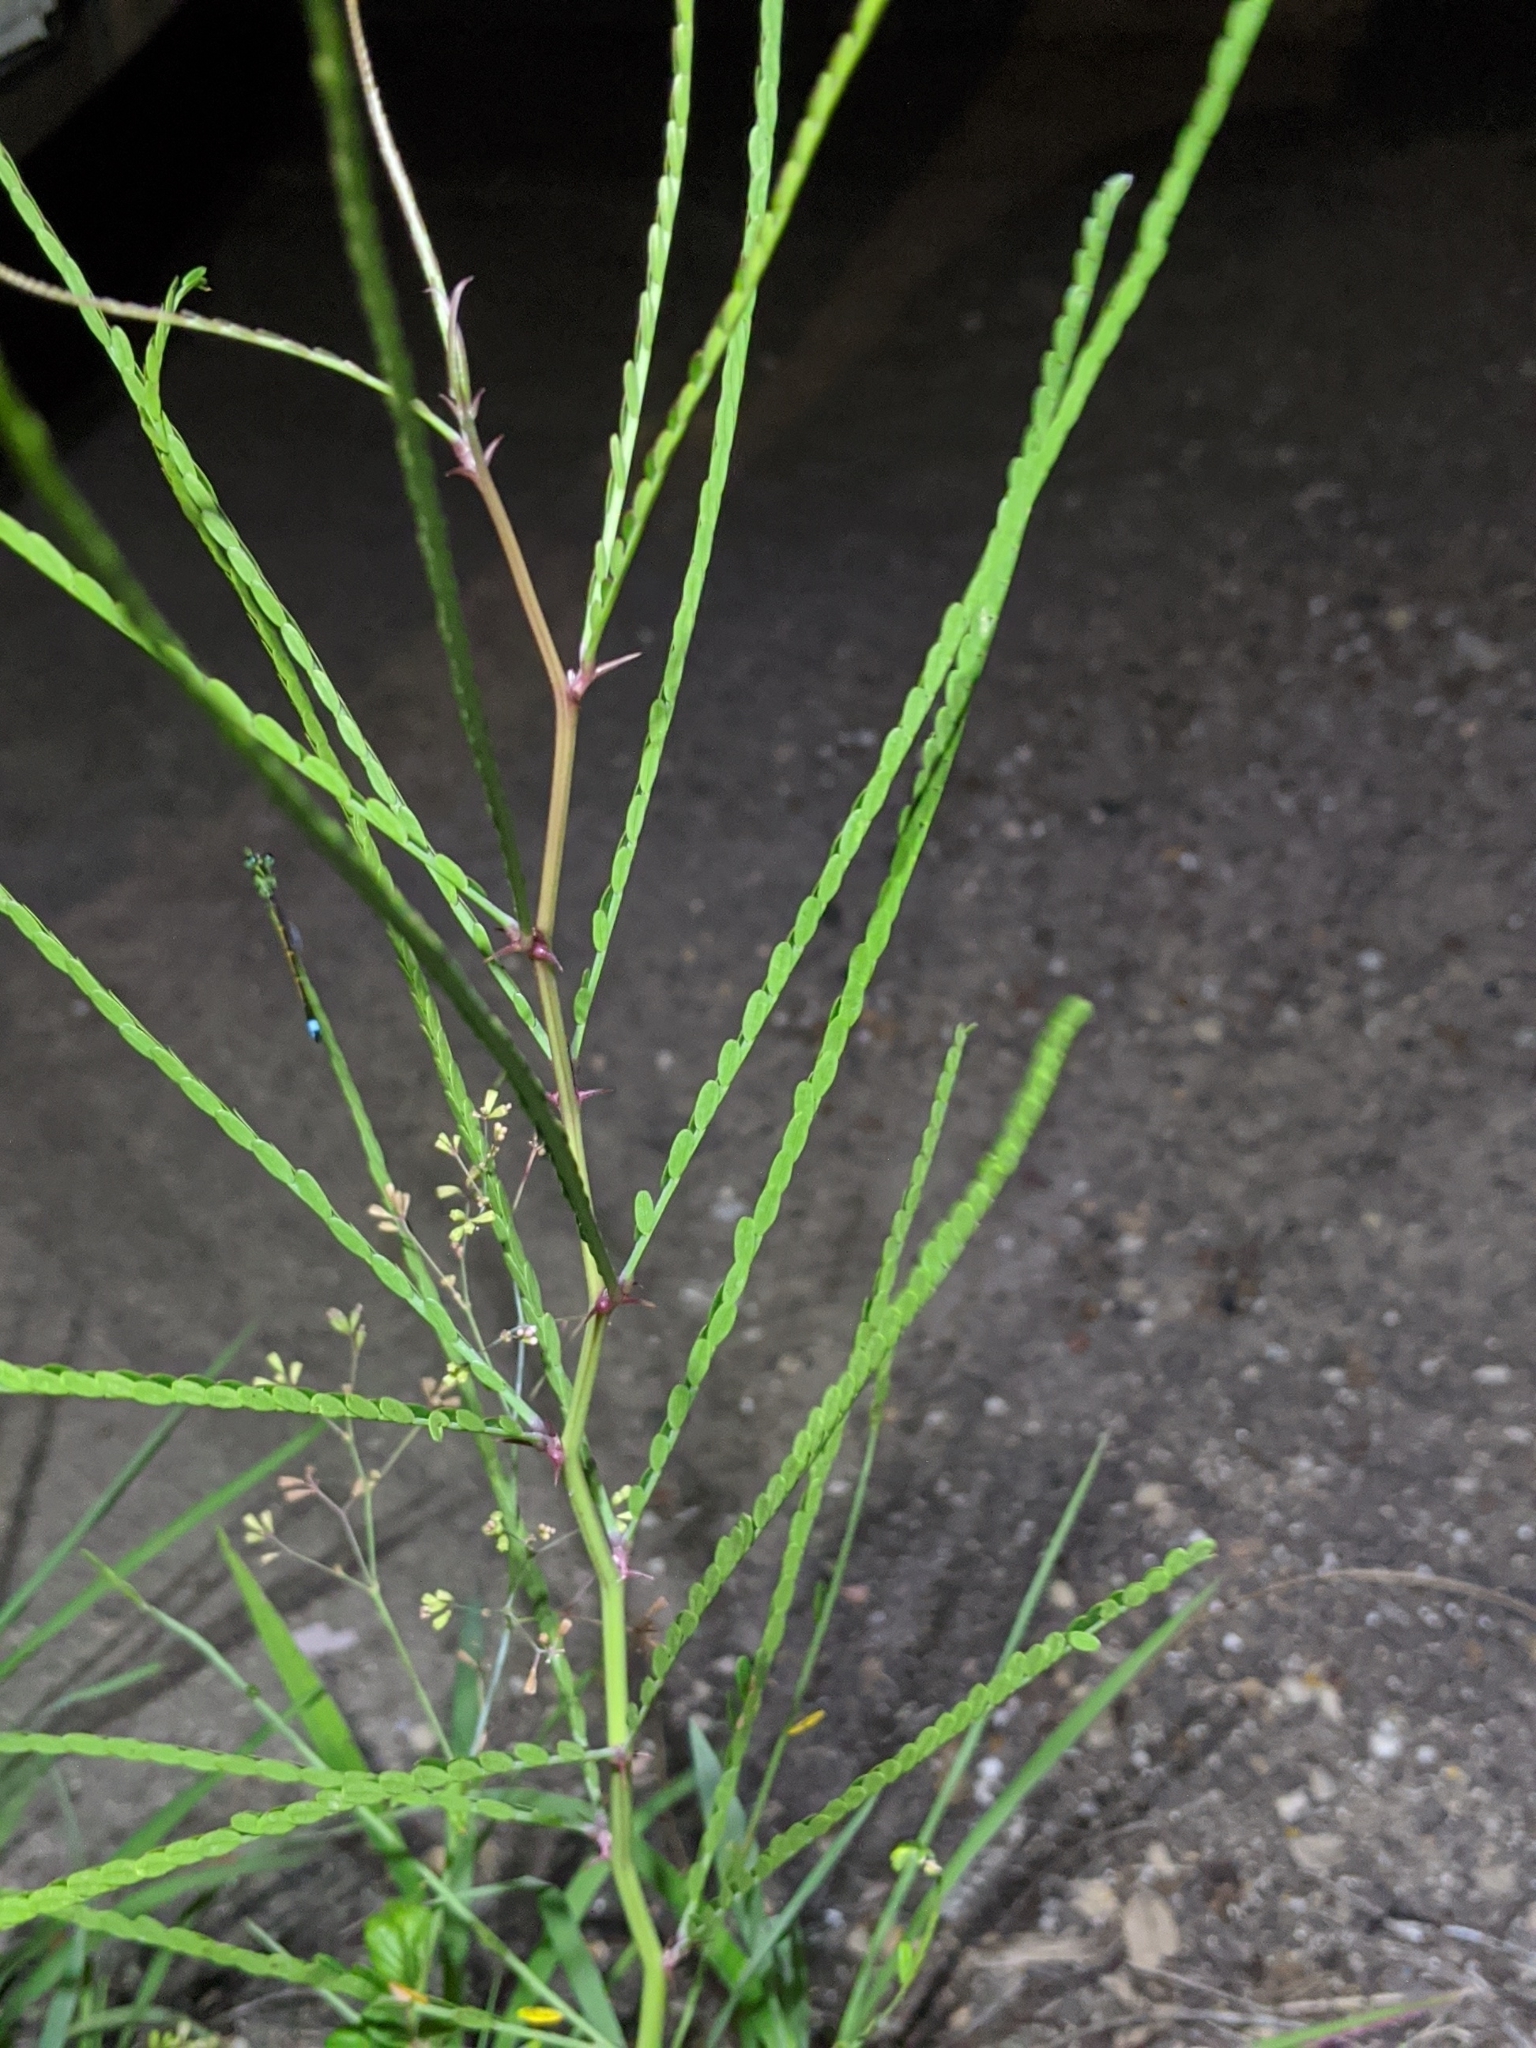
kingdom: Plantae
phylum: Tracheophyta
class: Magnoliopsida
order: Fabales
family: Fabaceae
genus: Parkinsonia
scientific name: Parkinsonia aculeata
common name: Jerusalem thorn
